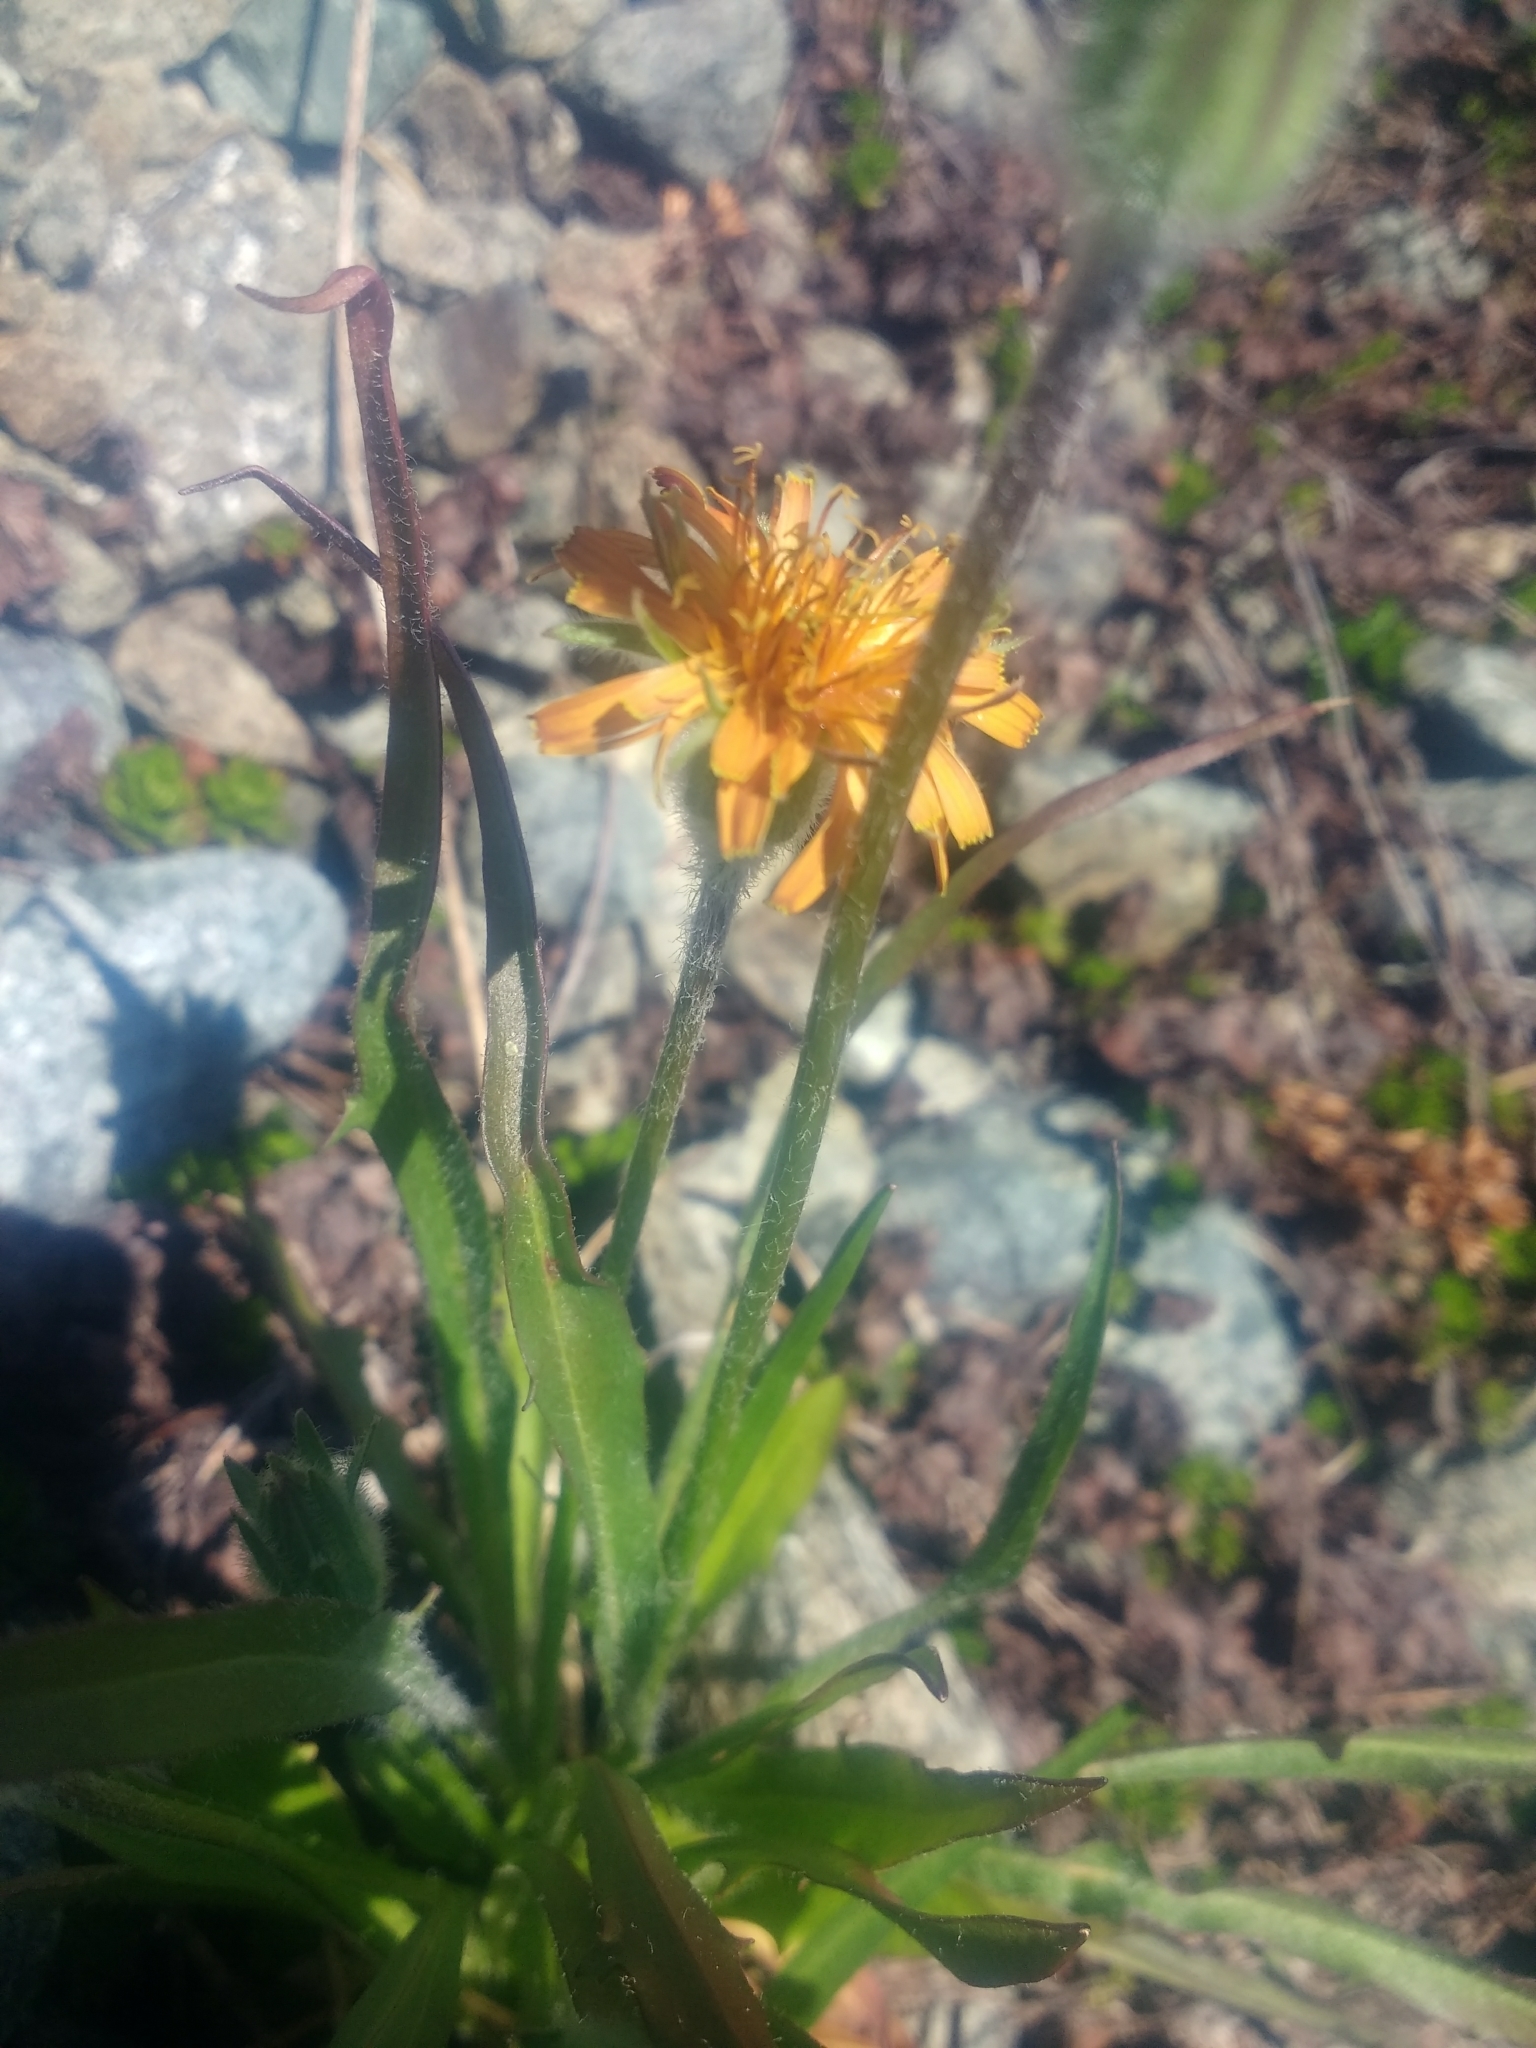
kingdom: Plantae
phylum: Tracheophyta
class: Magnoliopsida
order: Asterales
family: Asteraceae
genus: Agoseris
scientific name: Agoseris aurantiaca
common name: Mountain agoseris
